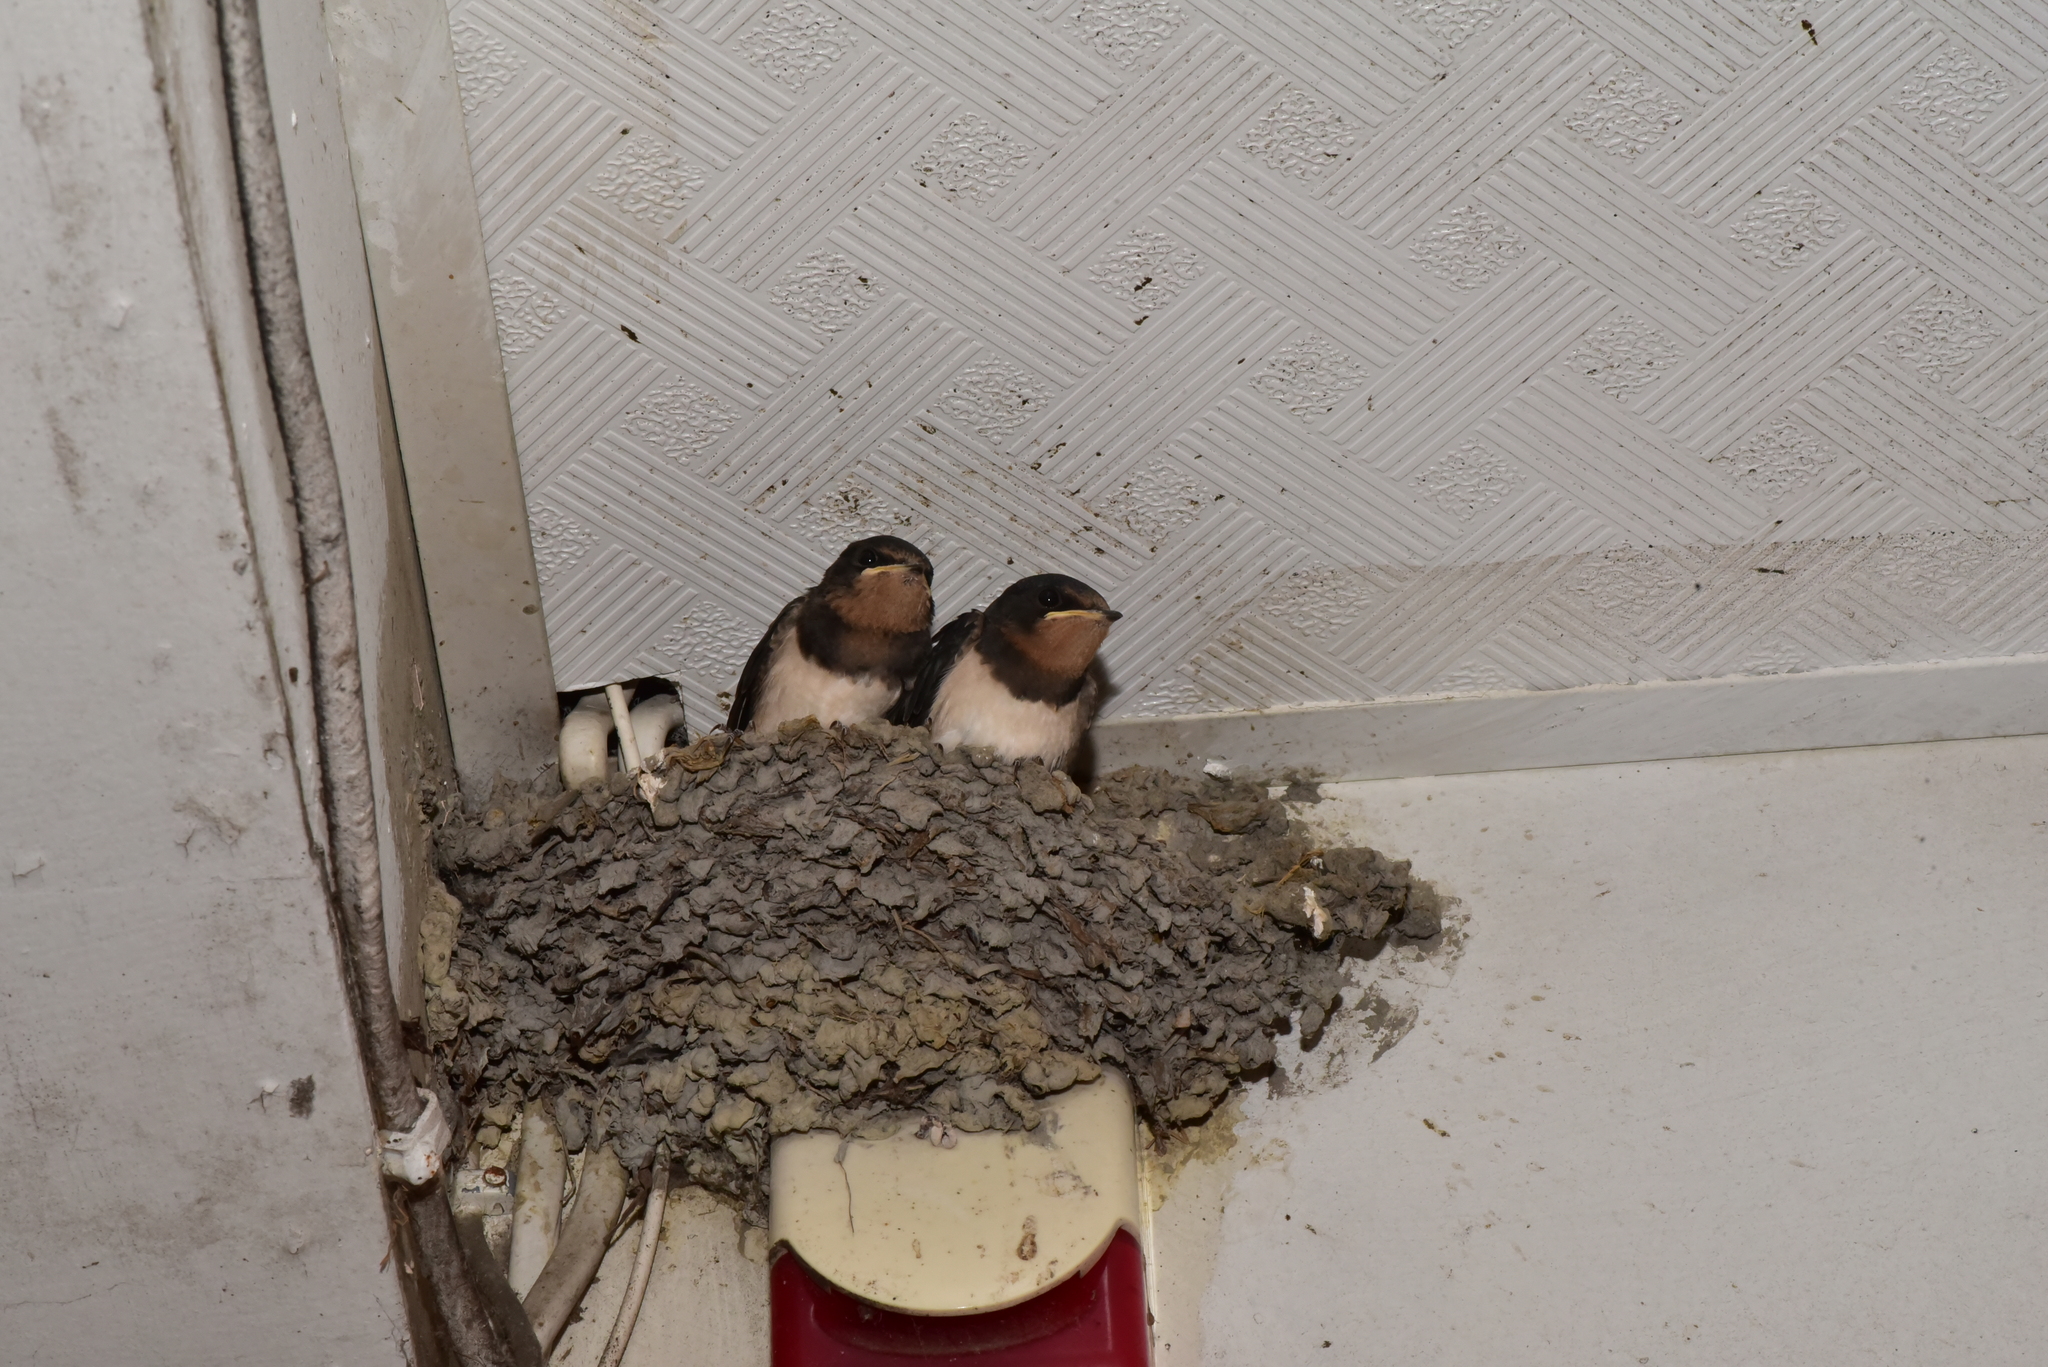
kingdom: Animalia
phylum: Chordata
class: Aves
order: Passeriformes
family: Hirundinidae
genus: Hirundo
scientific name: Hirundo rustica
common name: Barn swallow
